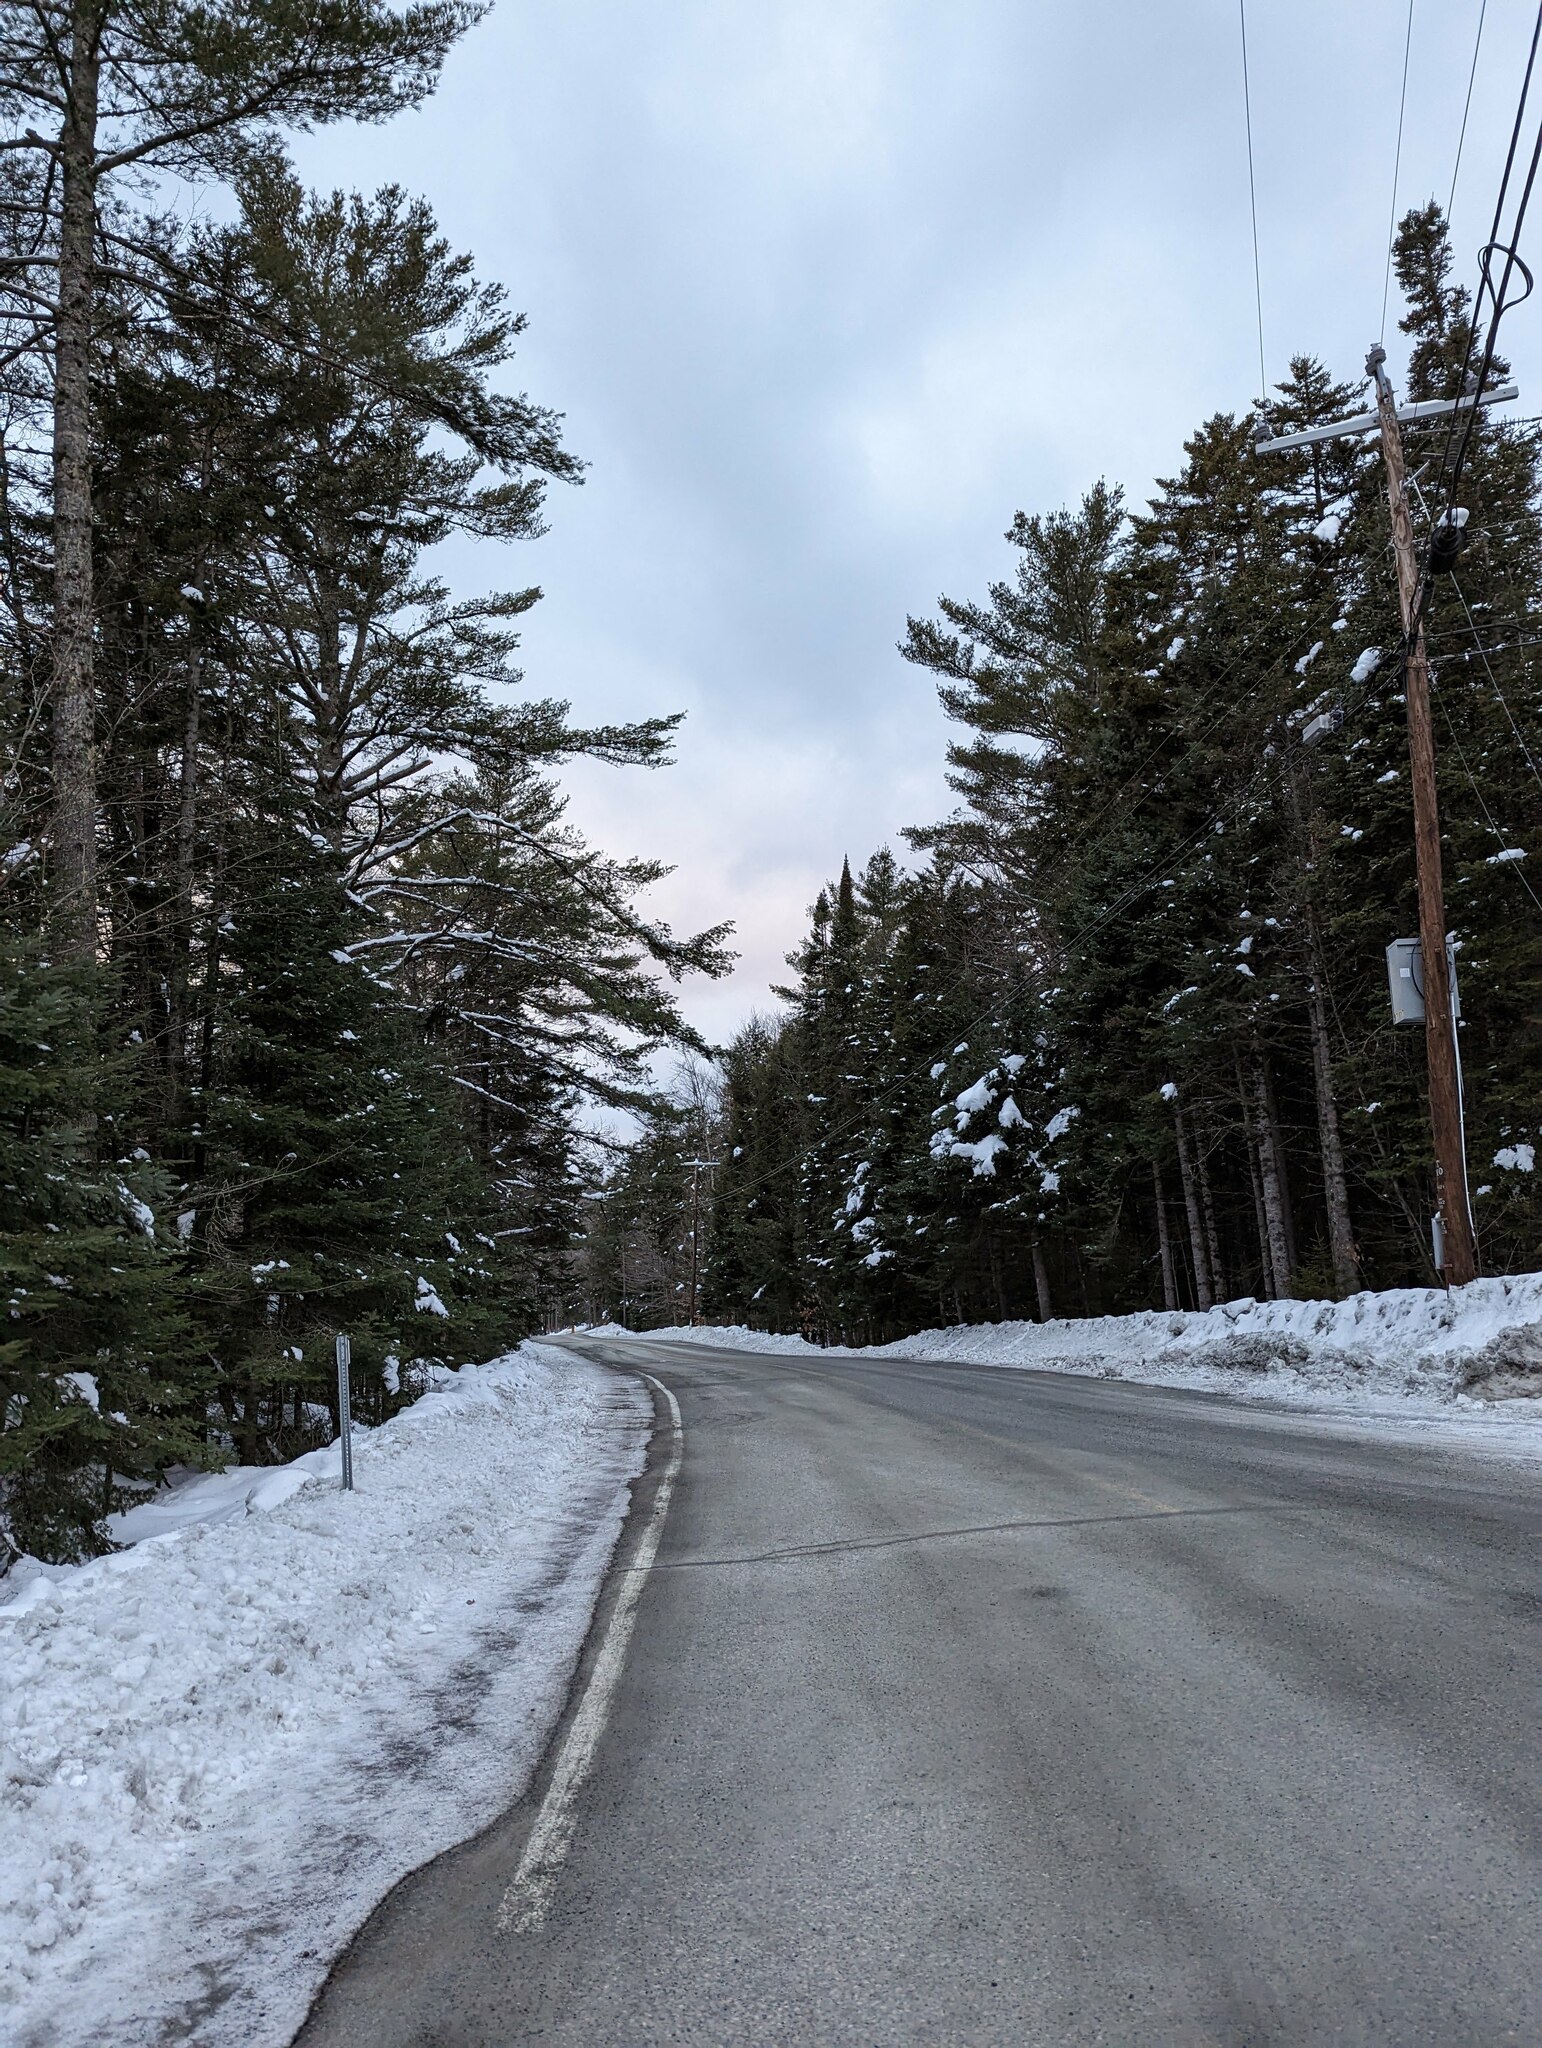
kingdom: Plantae
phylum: Tracheophyta
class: Pinopsida
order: Pinales
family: Pinaceae
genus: Pinus
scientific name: Pinus strobus
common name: Weymouth pine
